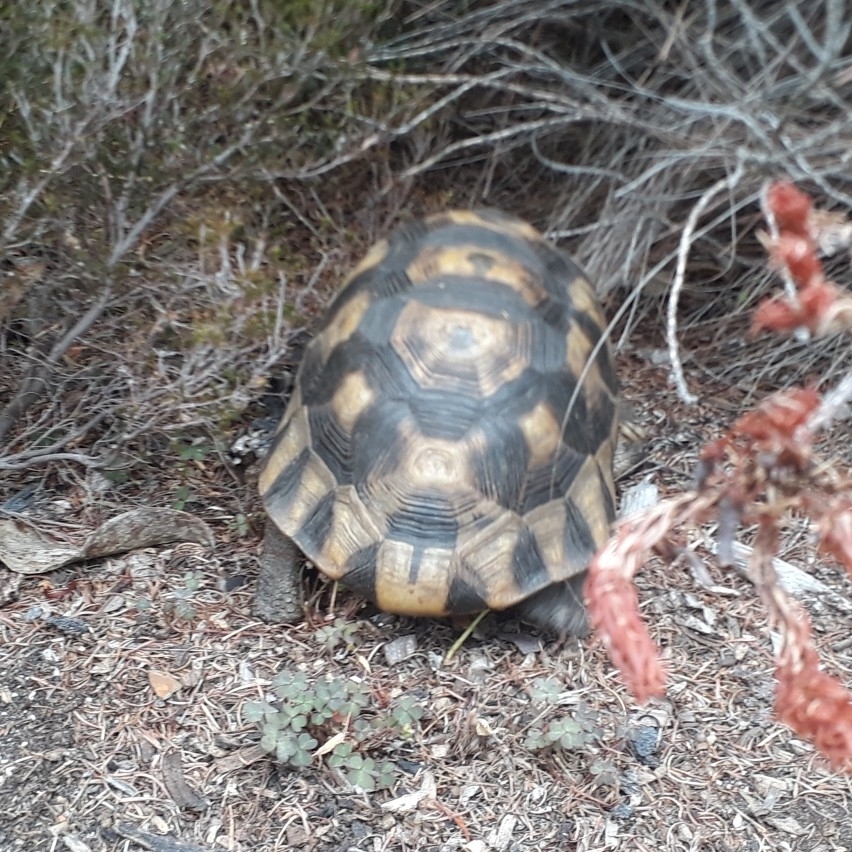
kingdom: Animalia
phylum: Chordata
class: Testudines
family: Testudinidae
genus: Chersina
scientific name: Chersina angulata
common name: South african bowsprit tortoise
